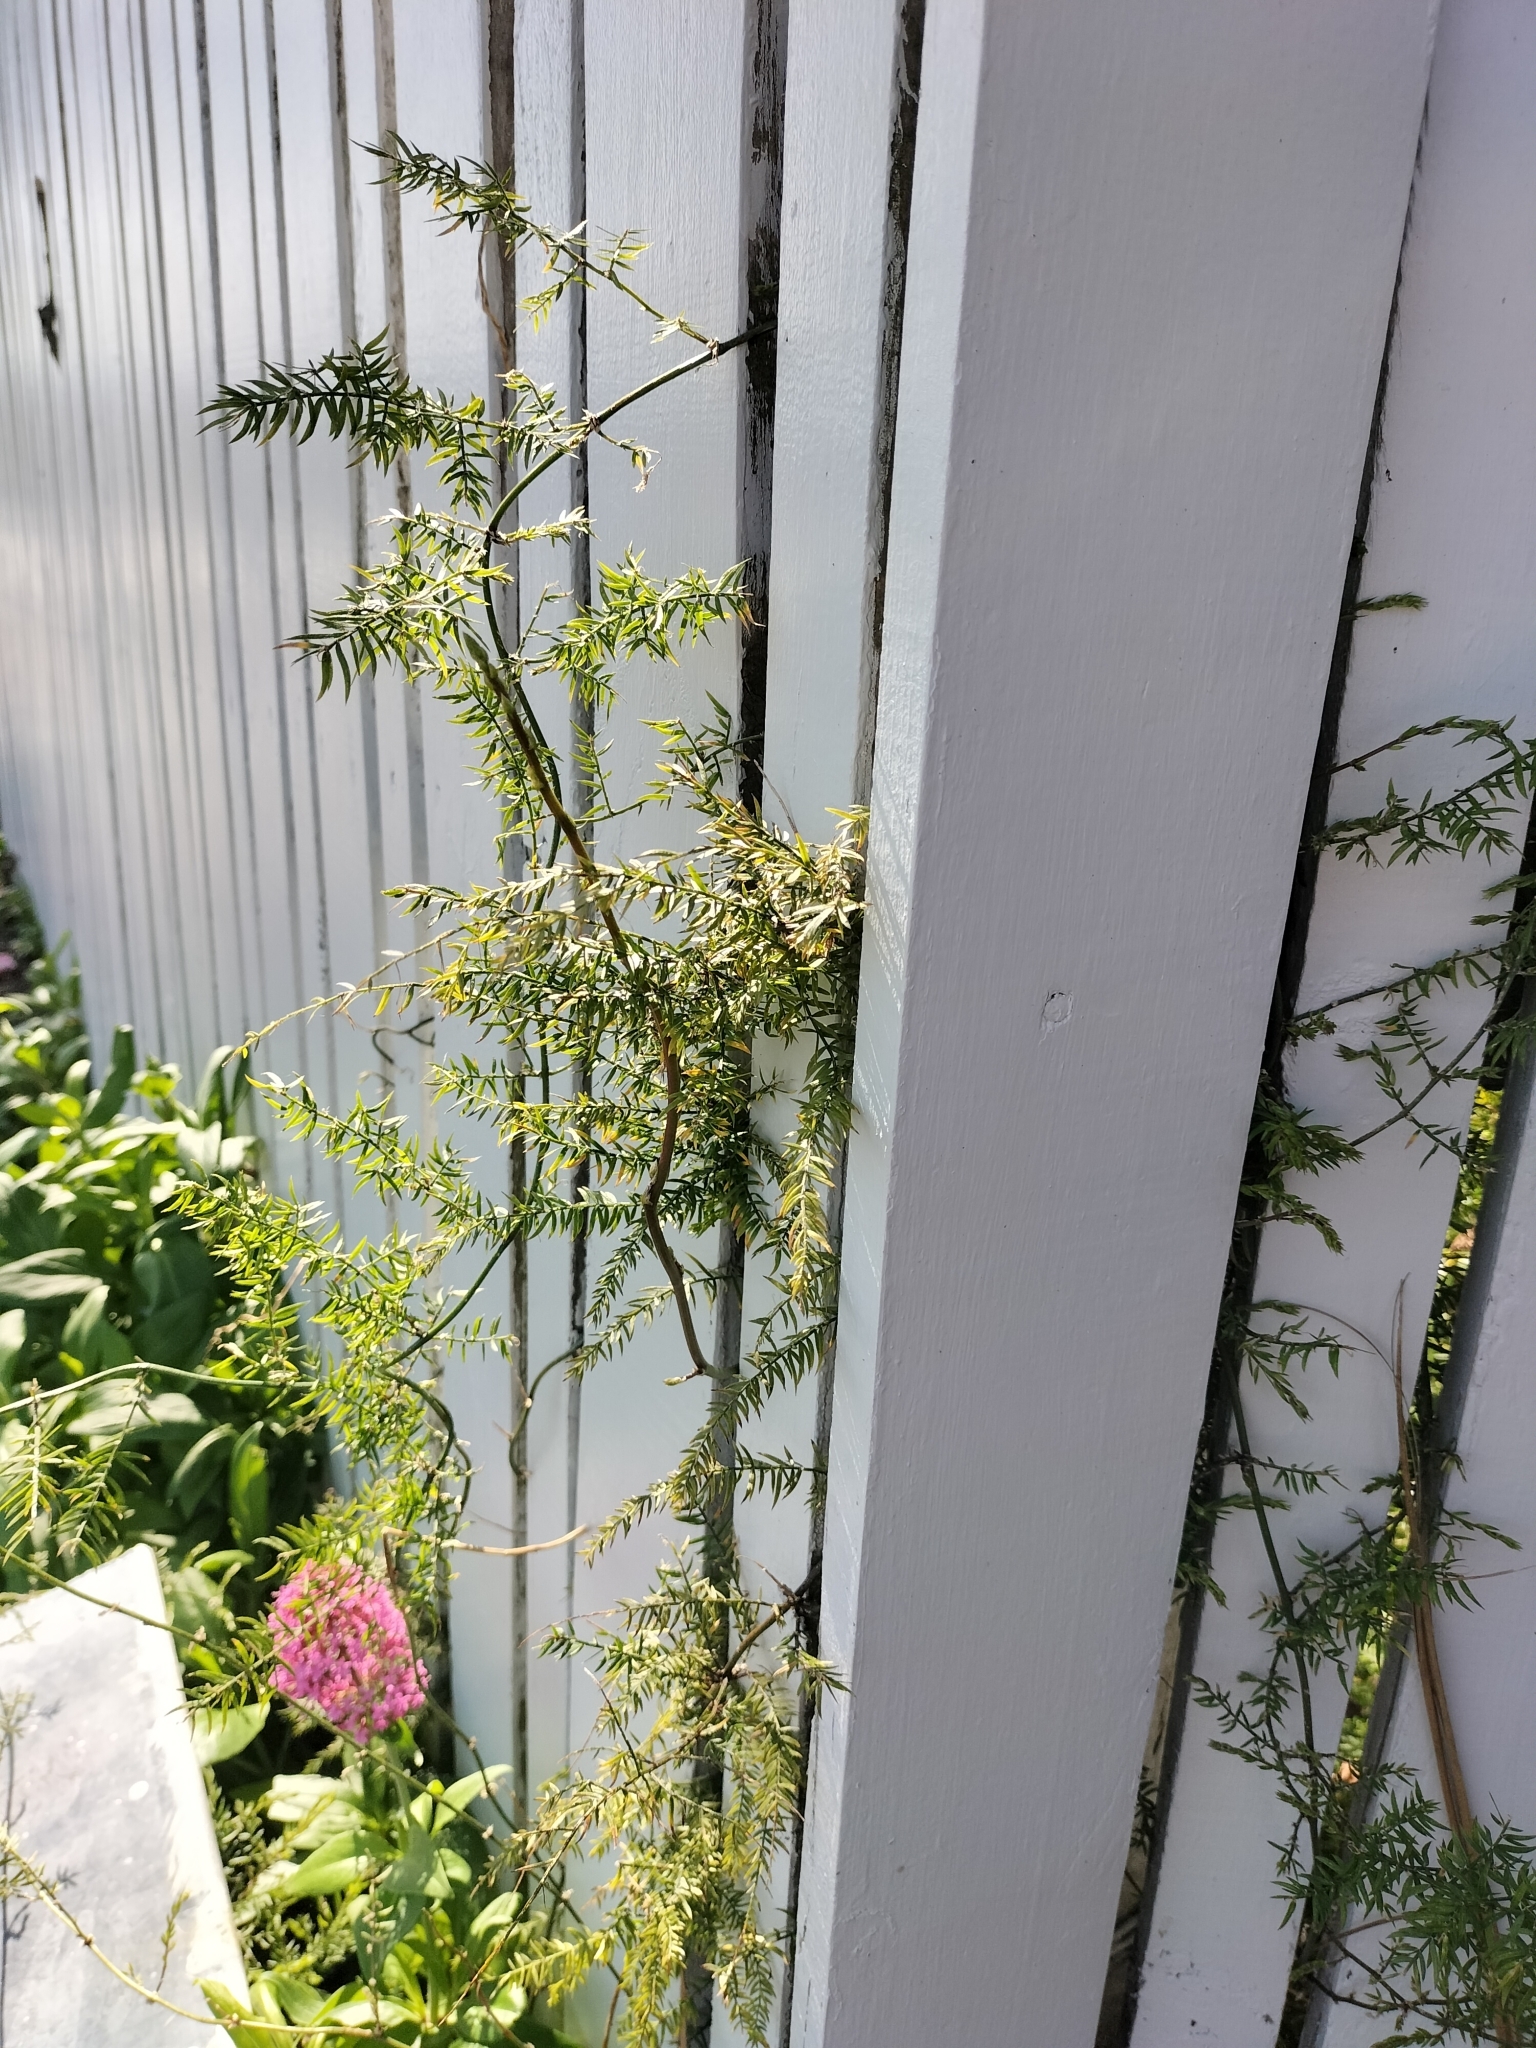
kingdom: Plantae
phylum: Tracheophyta
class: Liliopsida
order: Asparagales
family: Asparagaceae
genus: Asparagus
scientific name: Asparagus scandens
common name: Asparagus-fern
